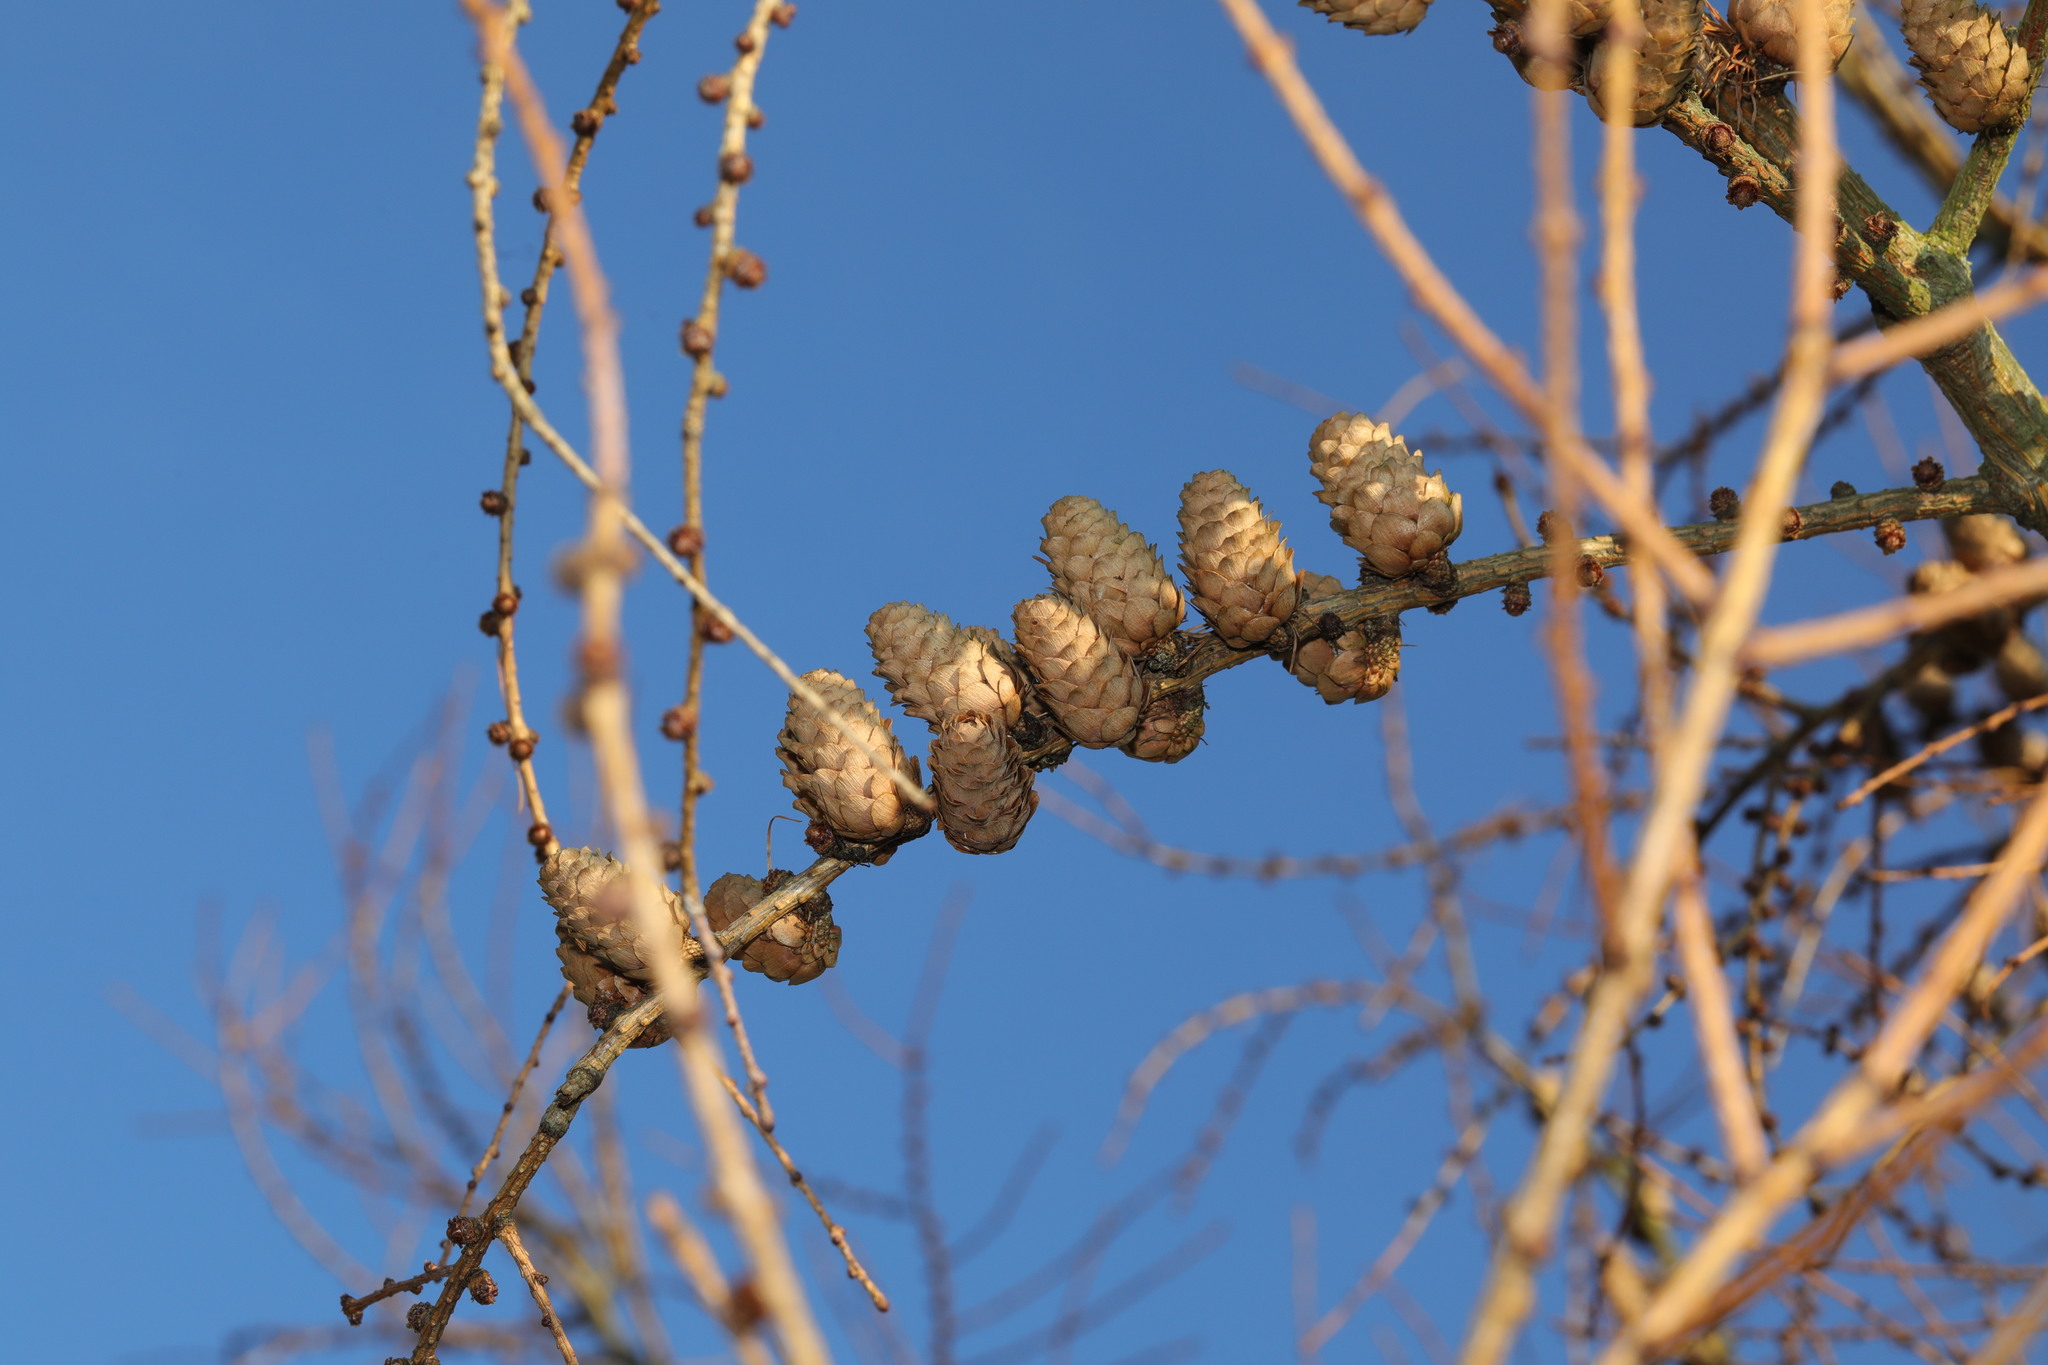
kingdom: Plantae
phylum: Tracheophyta
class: Pinopsida
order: Pinales
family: Pinaceae
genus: Larix
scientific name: Larix decidua
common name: European larch
